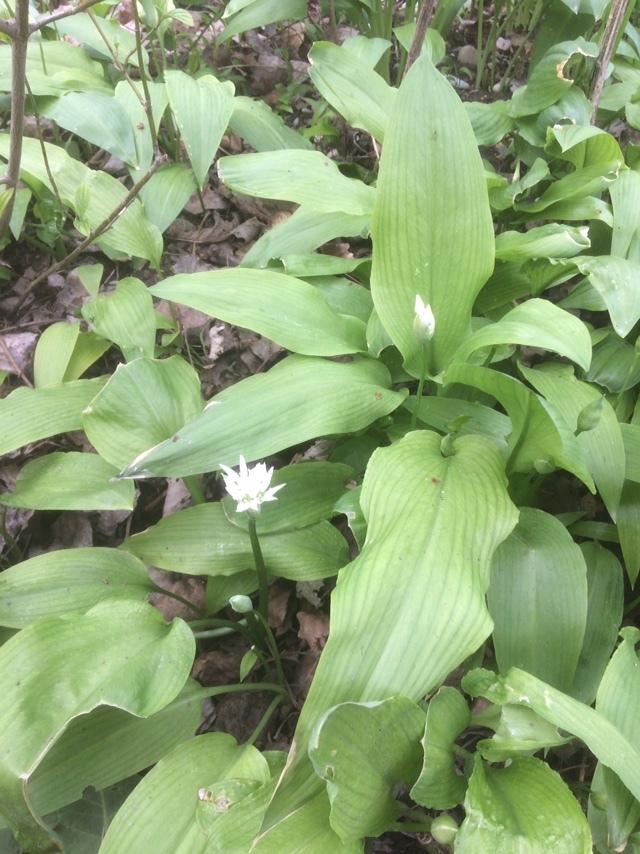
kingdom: Plantae
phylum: Tracheophyta
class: Liliopsida
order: Asparagales
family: Amaryllidaceae
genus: Allium
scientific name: Allium ursinum
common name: Ramsons
